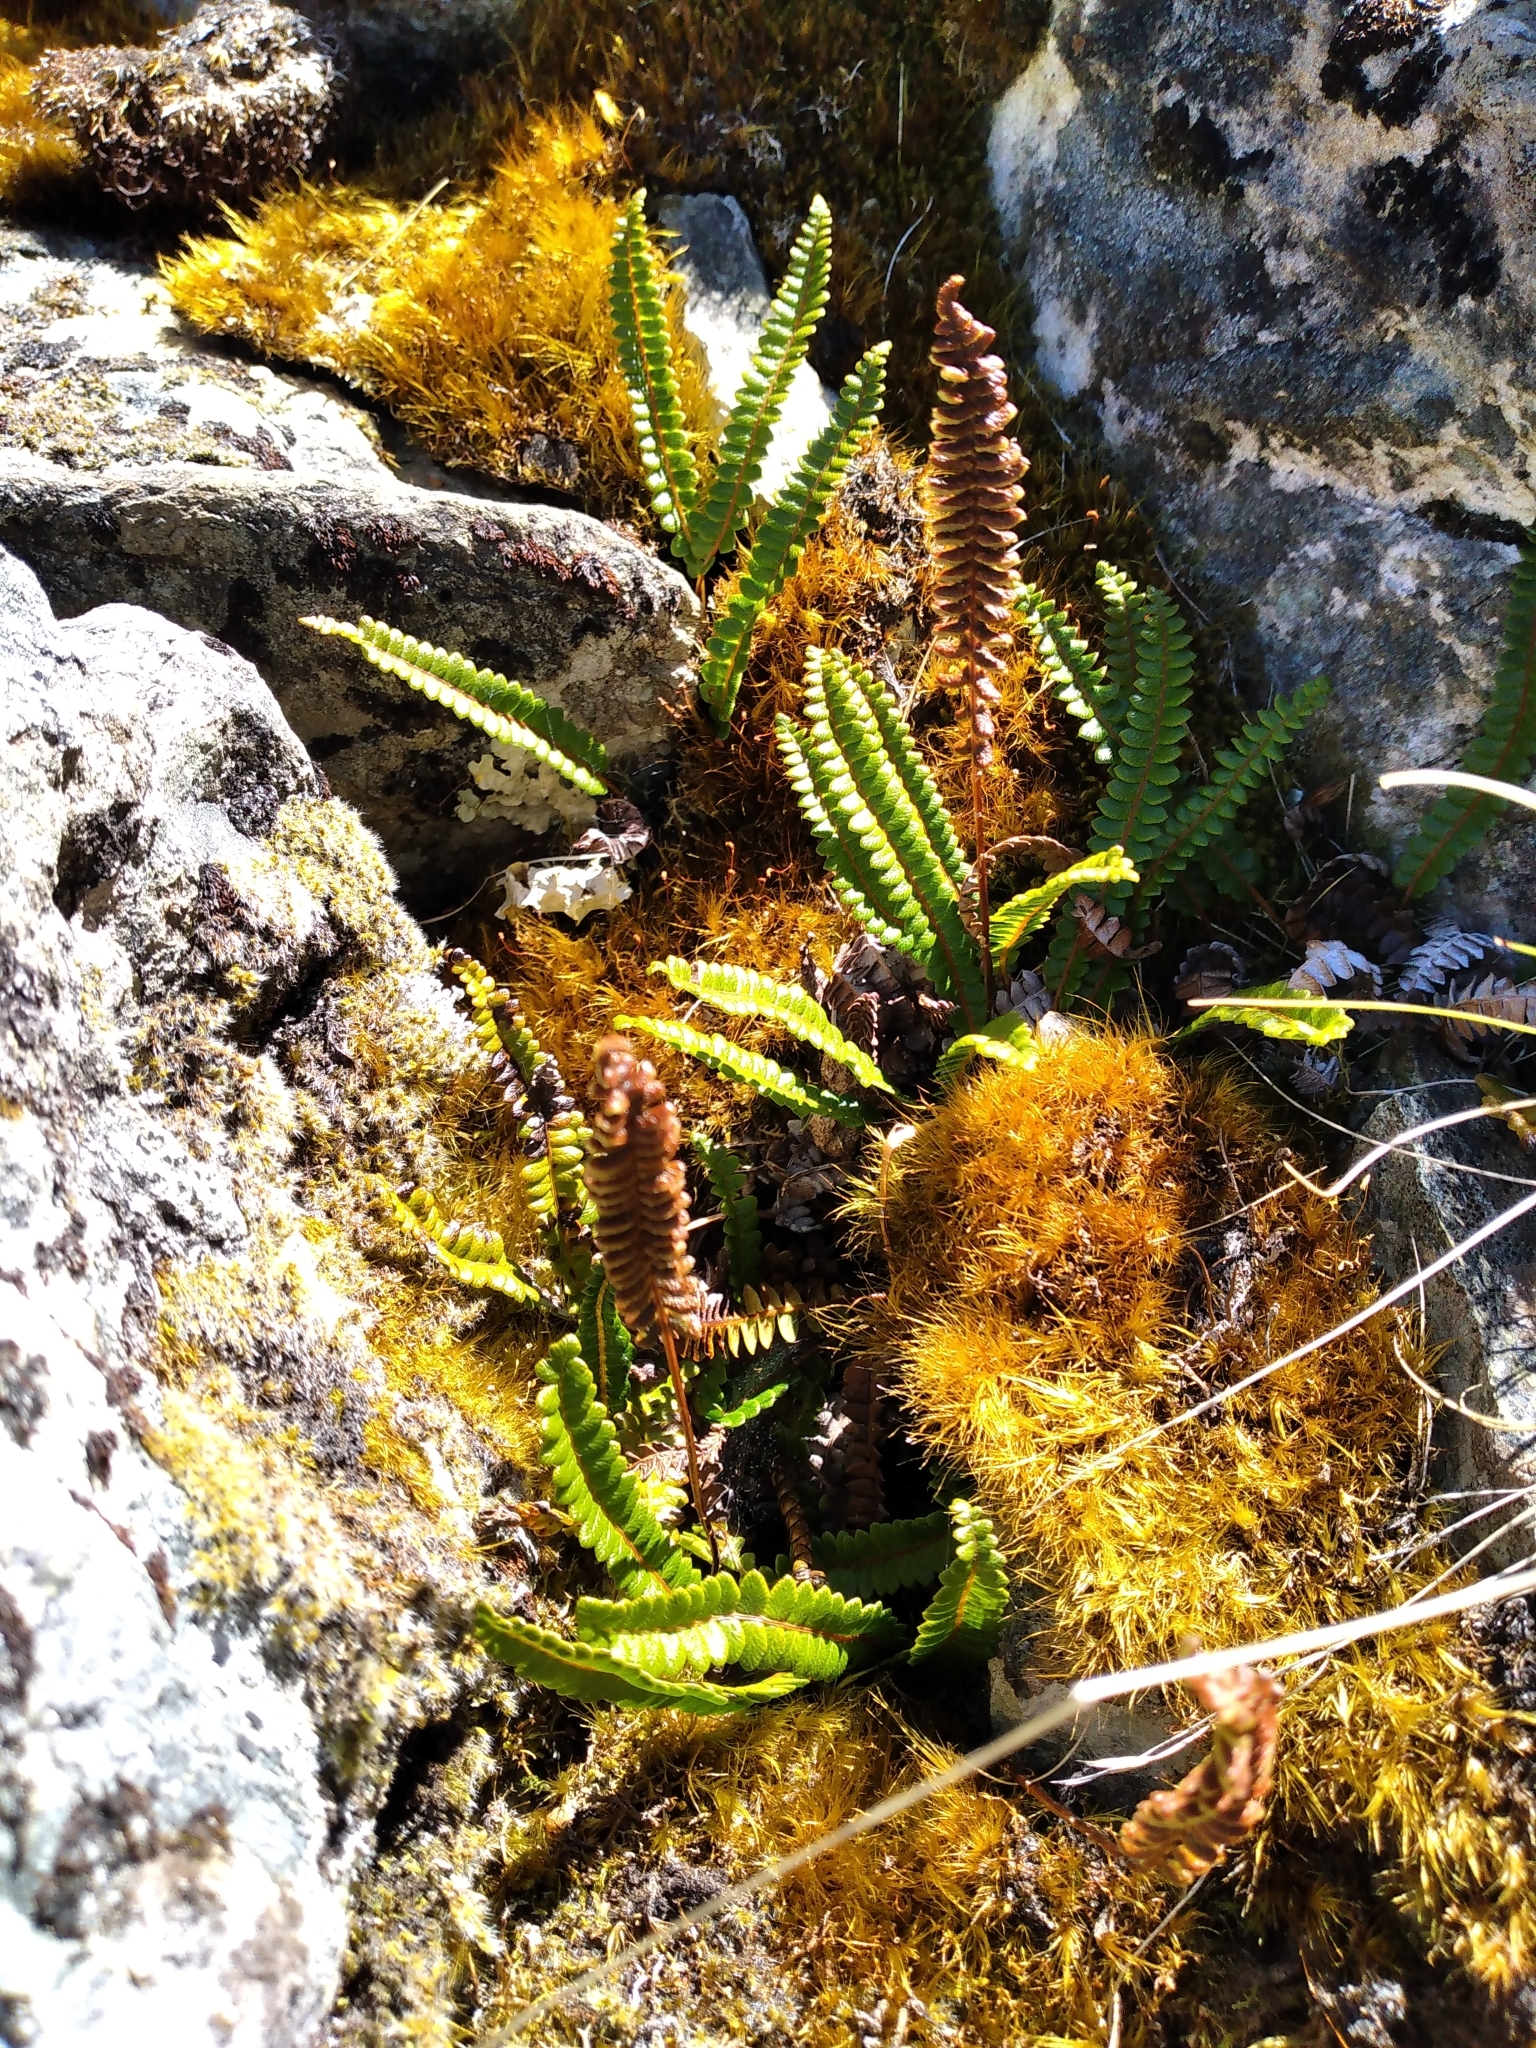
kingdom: Plantae
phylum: Tracheophyta
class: Polypodiopsida
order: Polypodiales
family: Blechnaceae
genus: Austroblechnum
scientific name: Austroblechnum penna-marina
